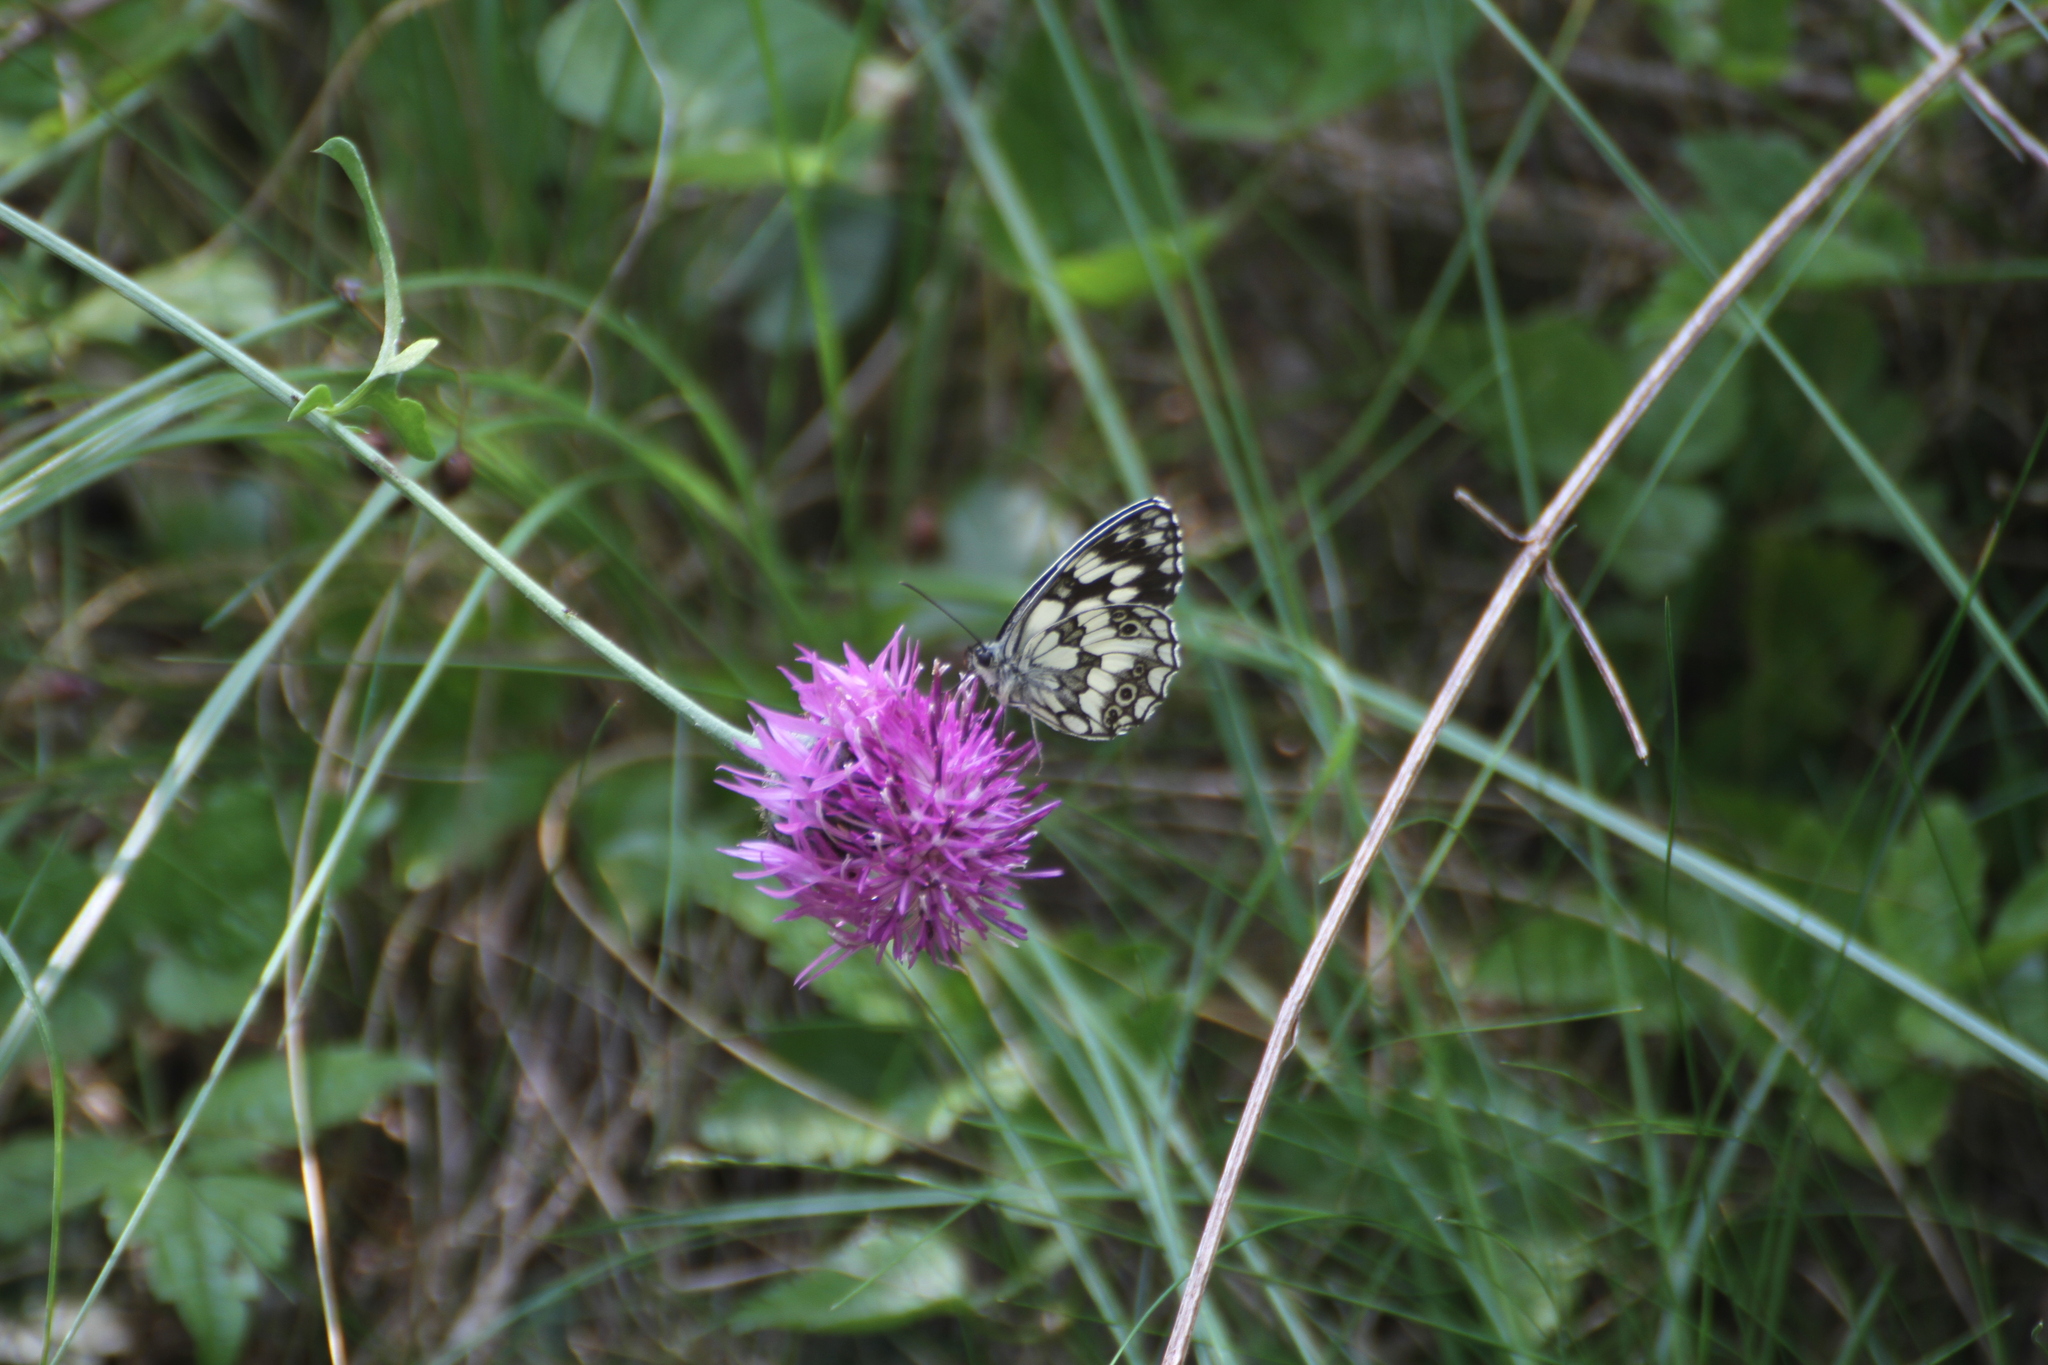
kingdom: Animalia
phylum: Arthropoda
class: Insecta
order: Lepidoptera
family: Nymphalidae
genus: Melanargia
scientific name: Melanargia galathea
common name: Marbled white
